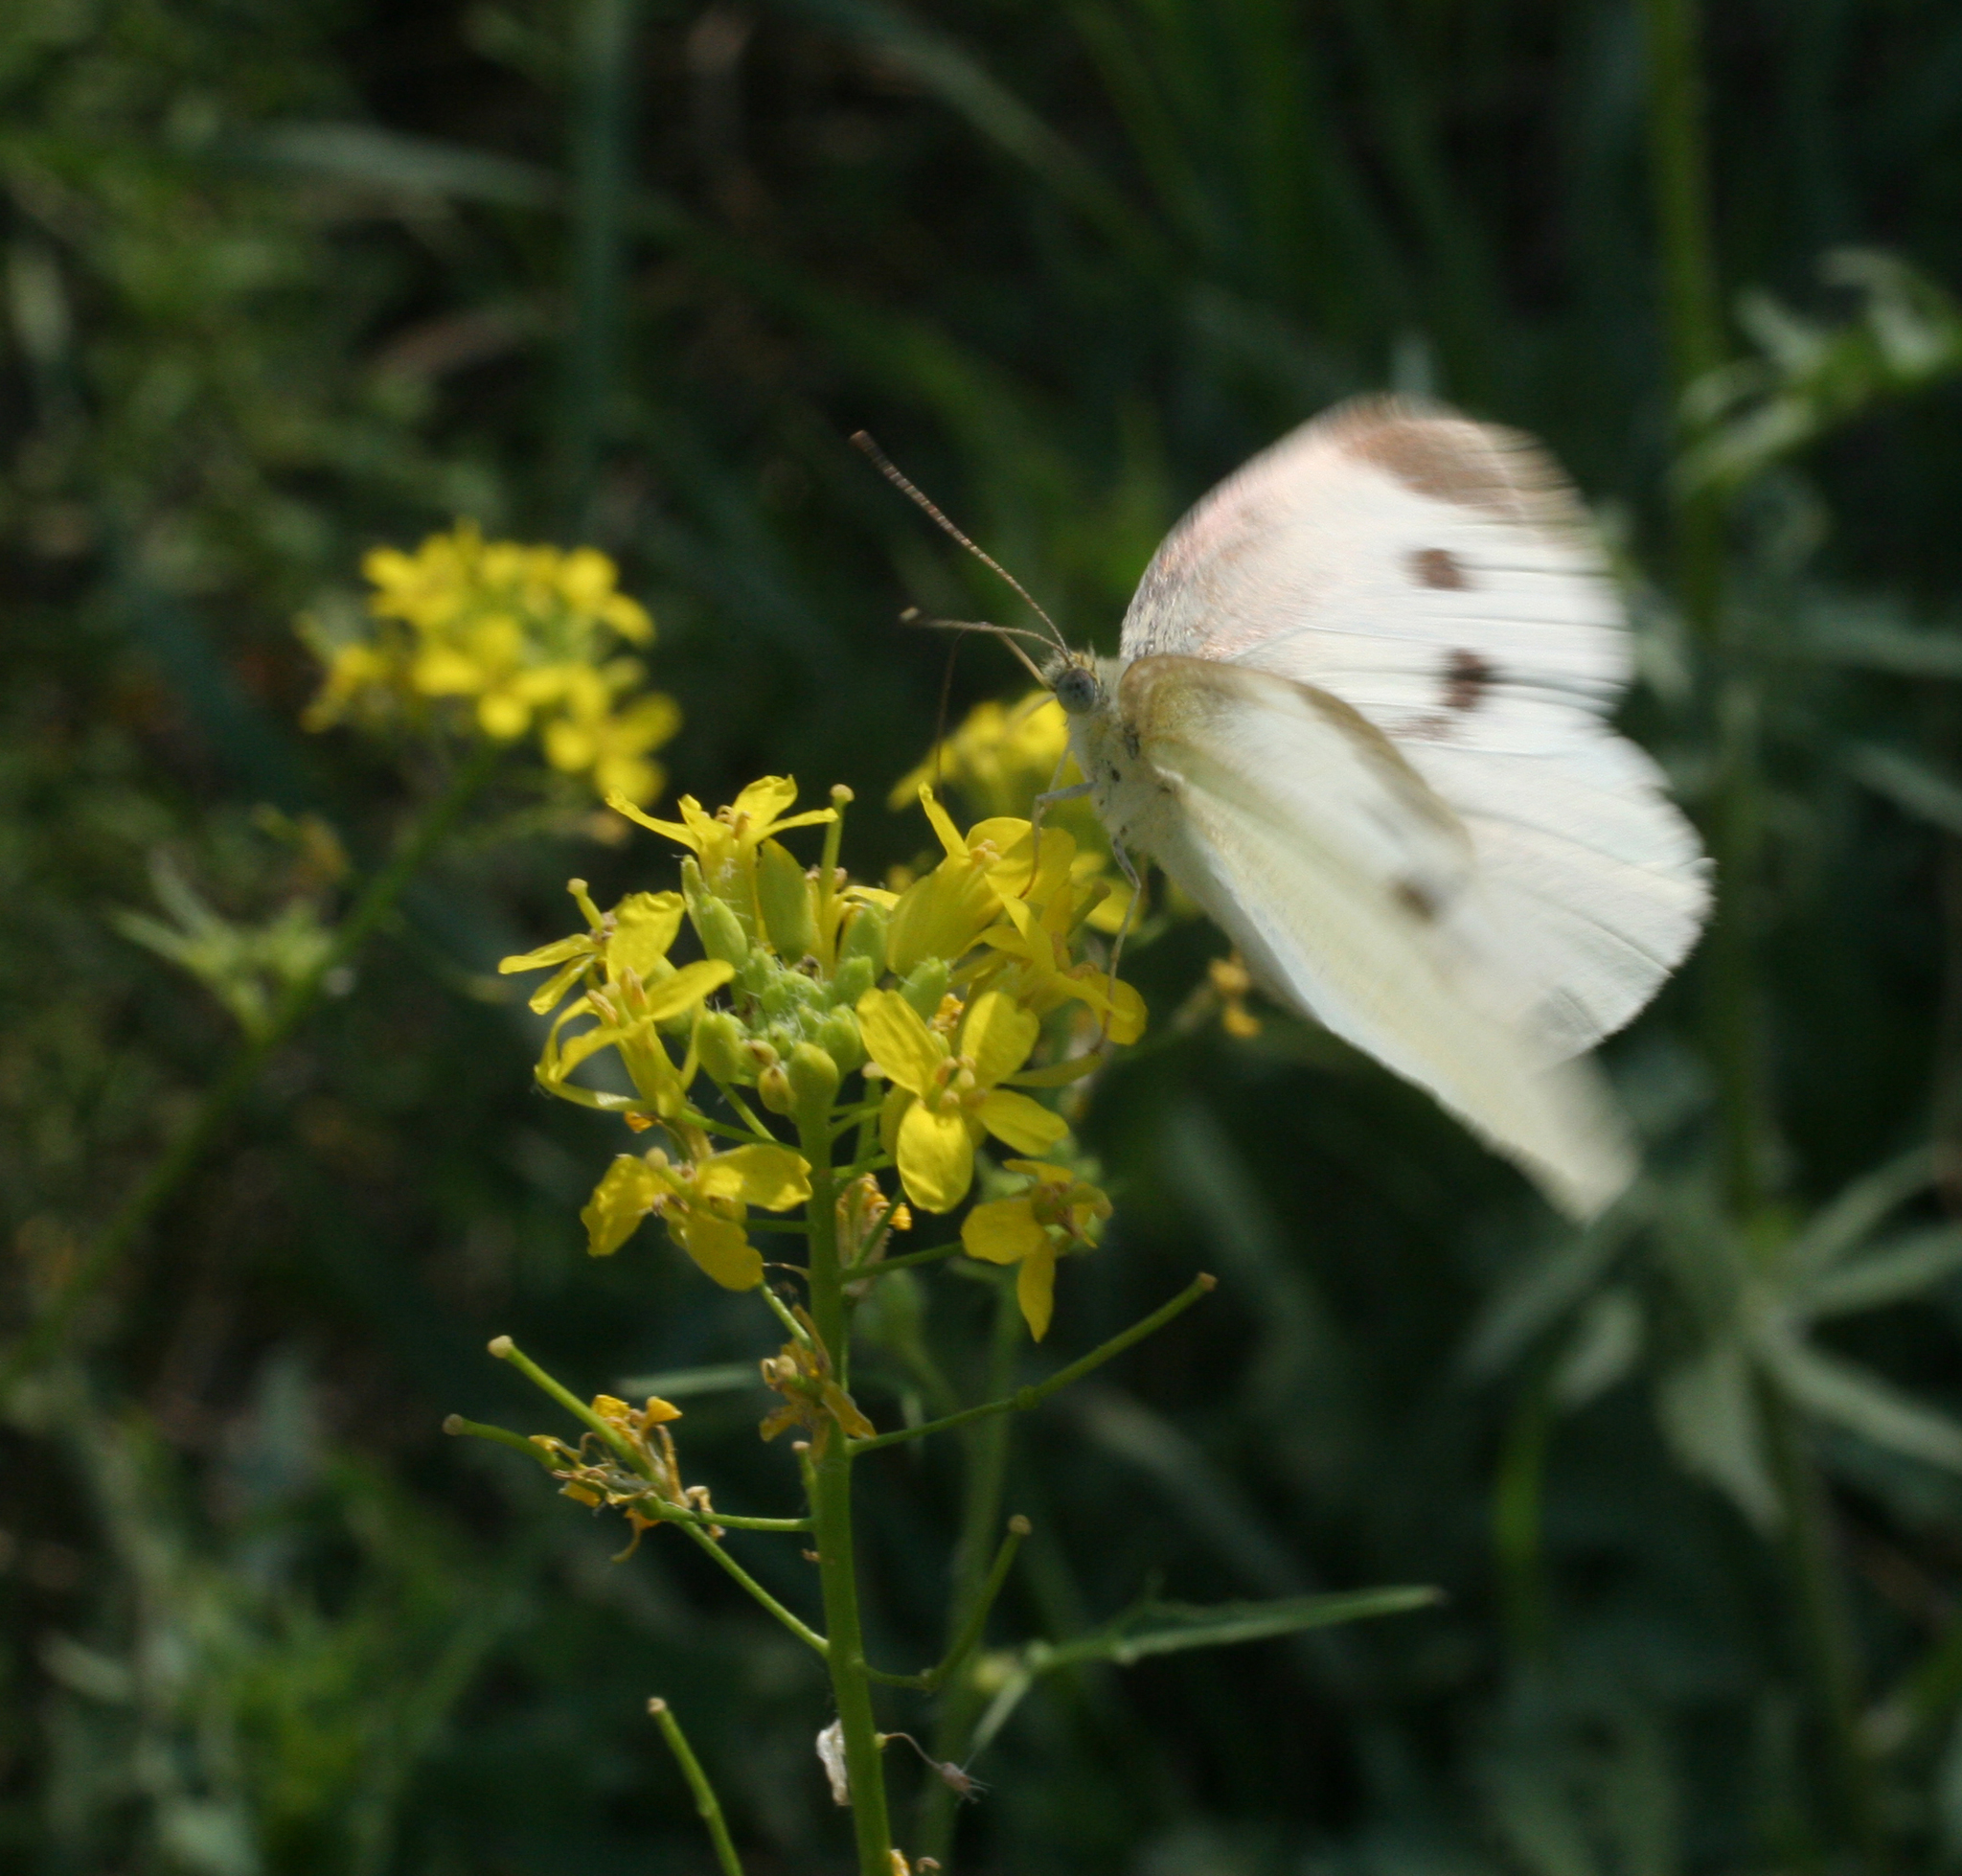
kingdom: Animalia
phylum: Arthropoda
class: Insecta
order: Lepidoptera
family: Pieridae
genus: Pieris
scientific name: Pieris rapae
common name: Small white
